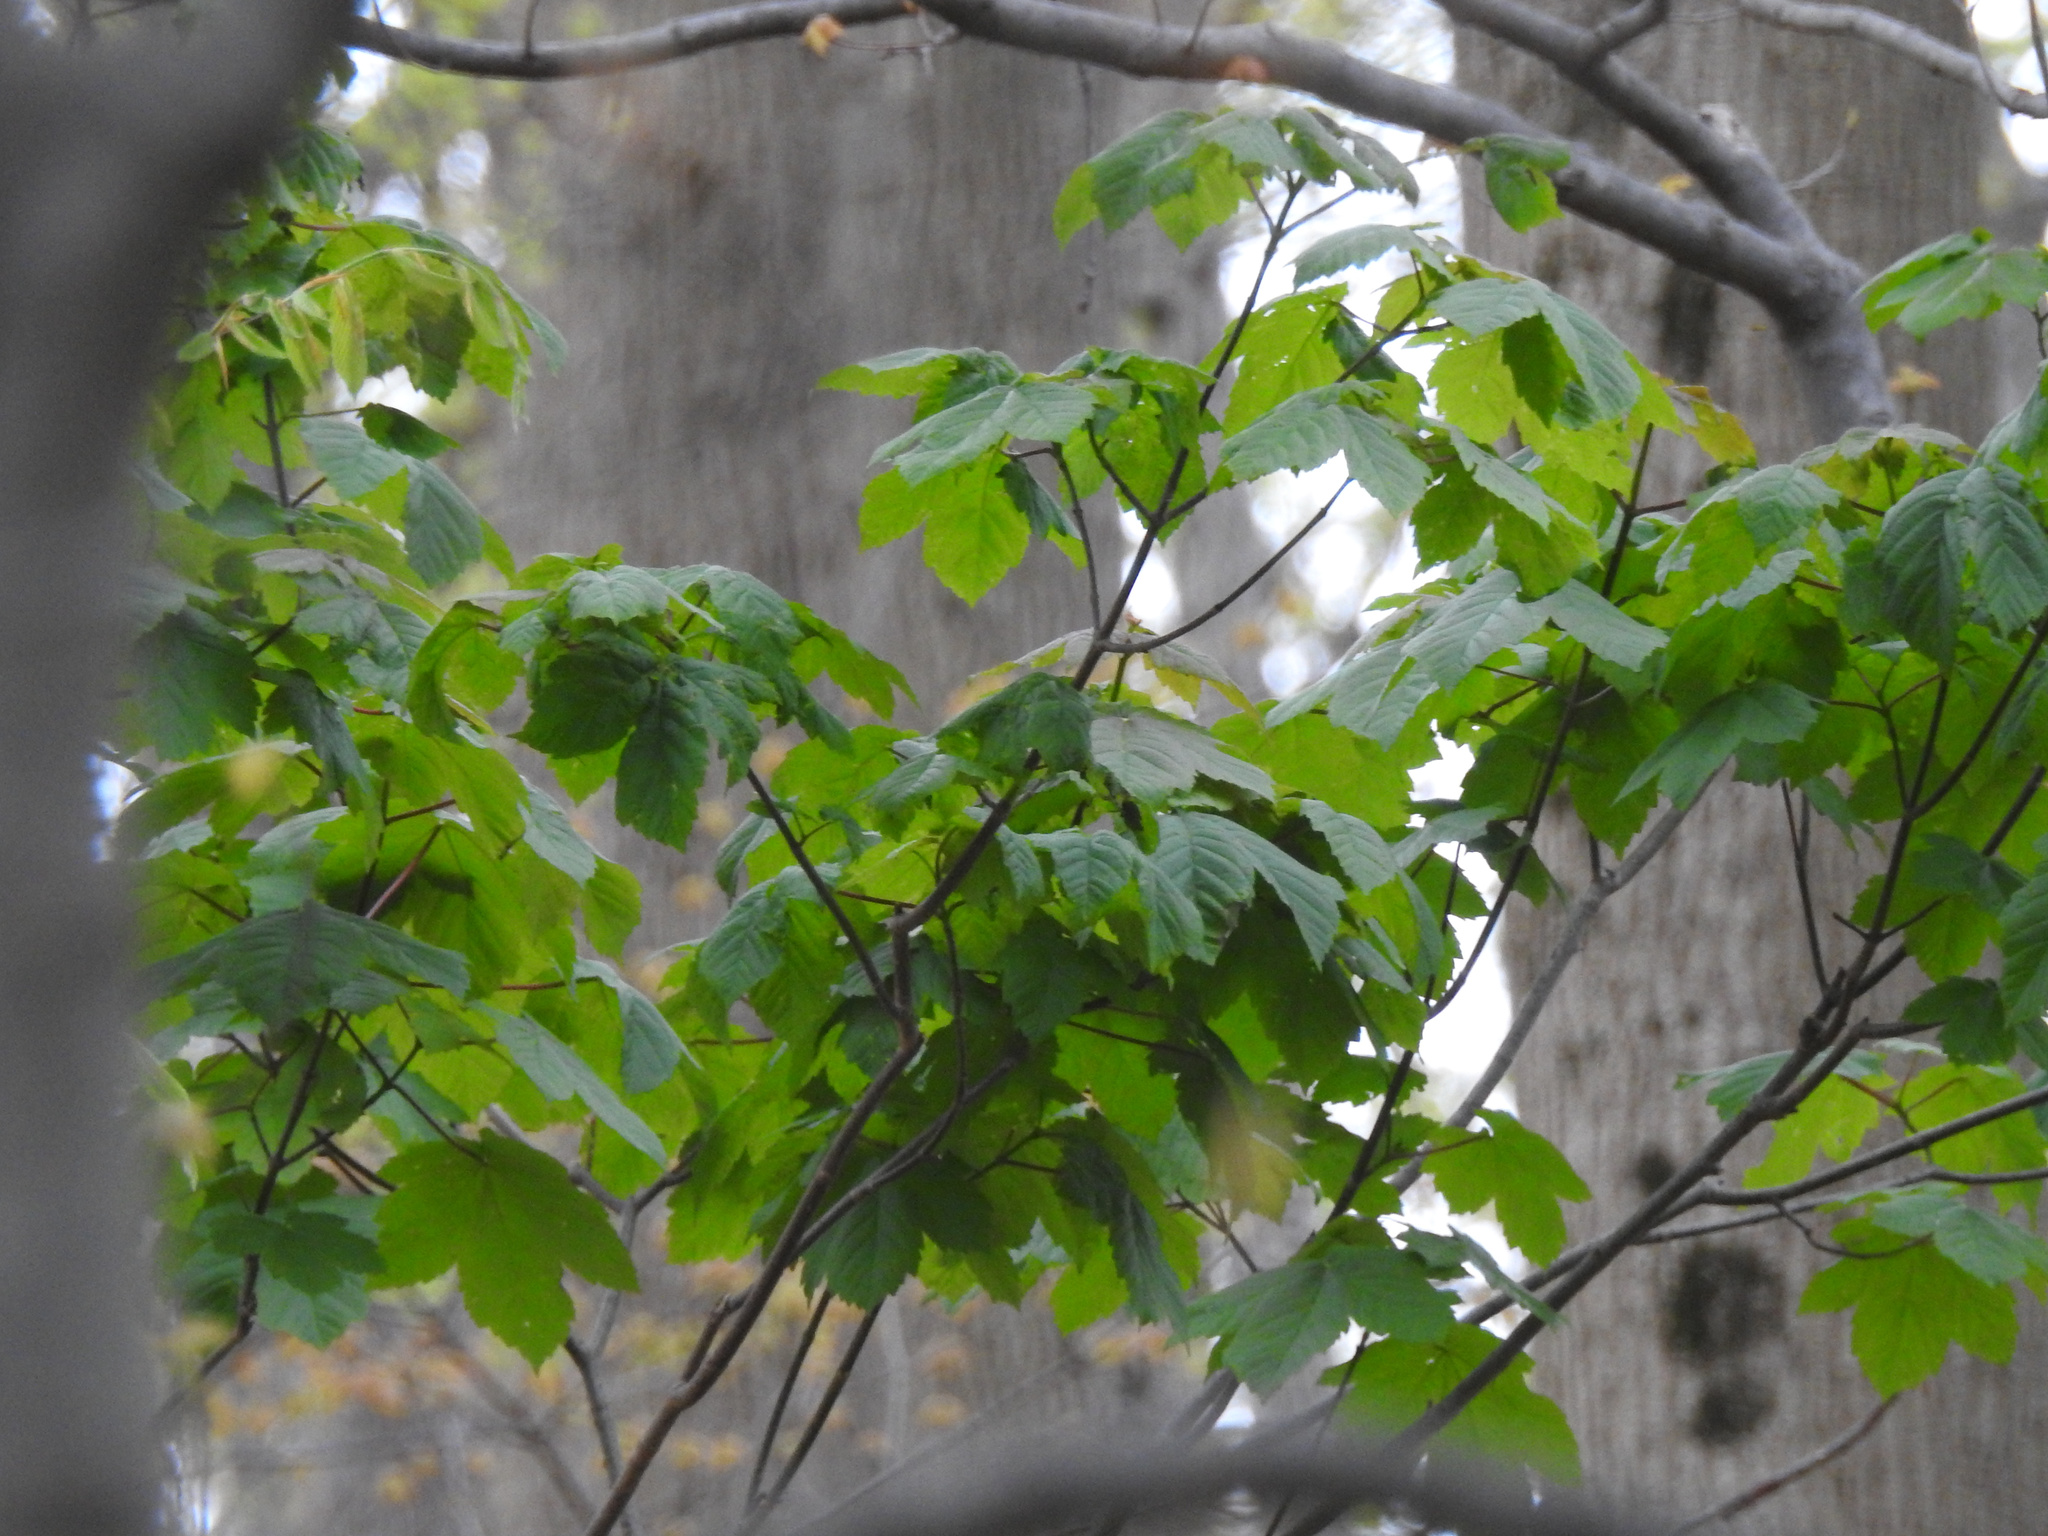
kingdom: Plantae
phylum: Tracheophyta
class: Magnoliopsida
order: Sapindales
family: Sapindaceae
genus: Acer
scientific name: Acer pseudoplatanus
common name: Sycamore
